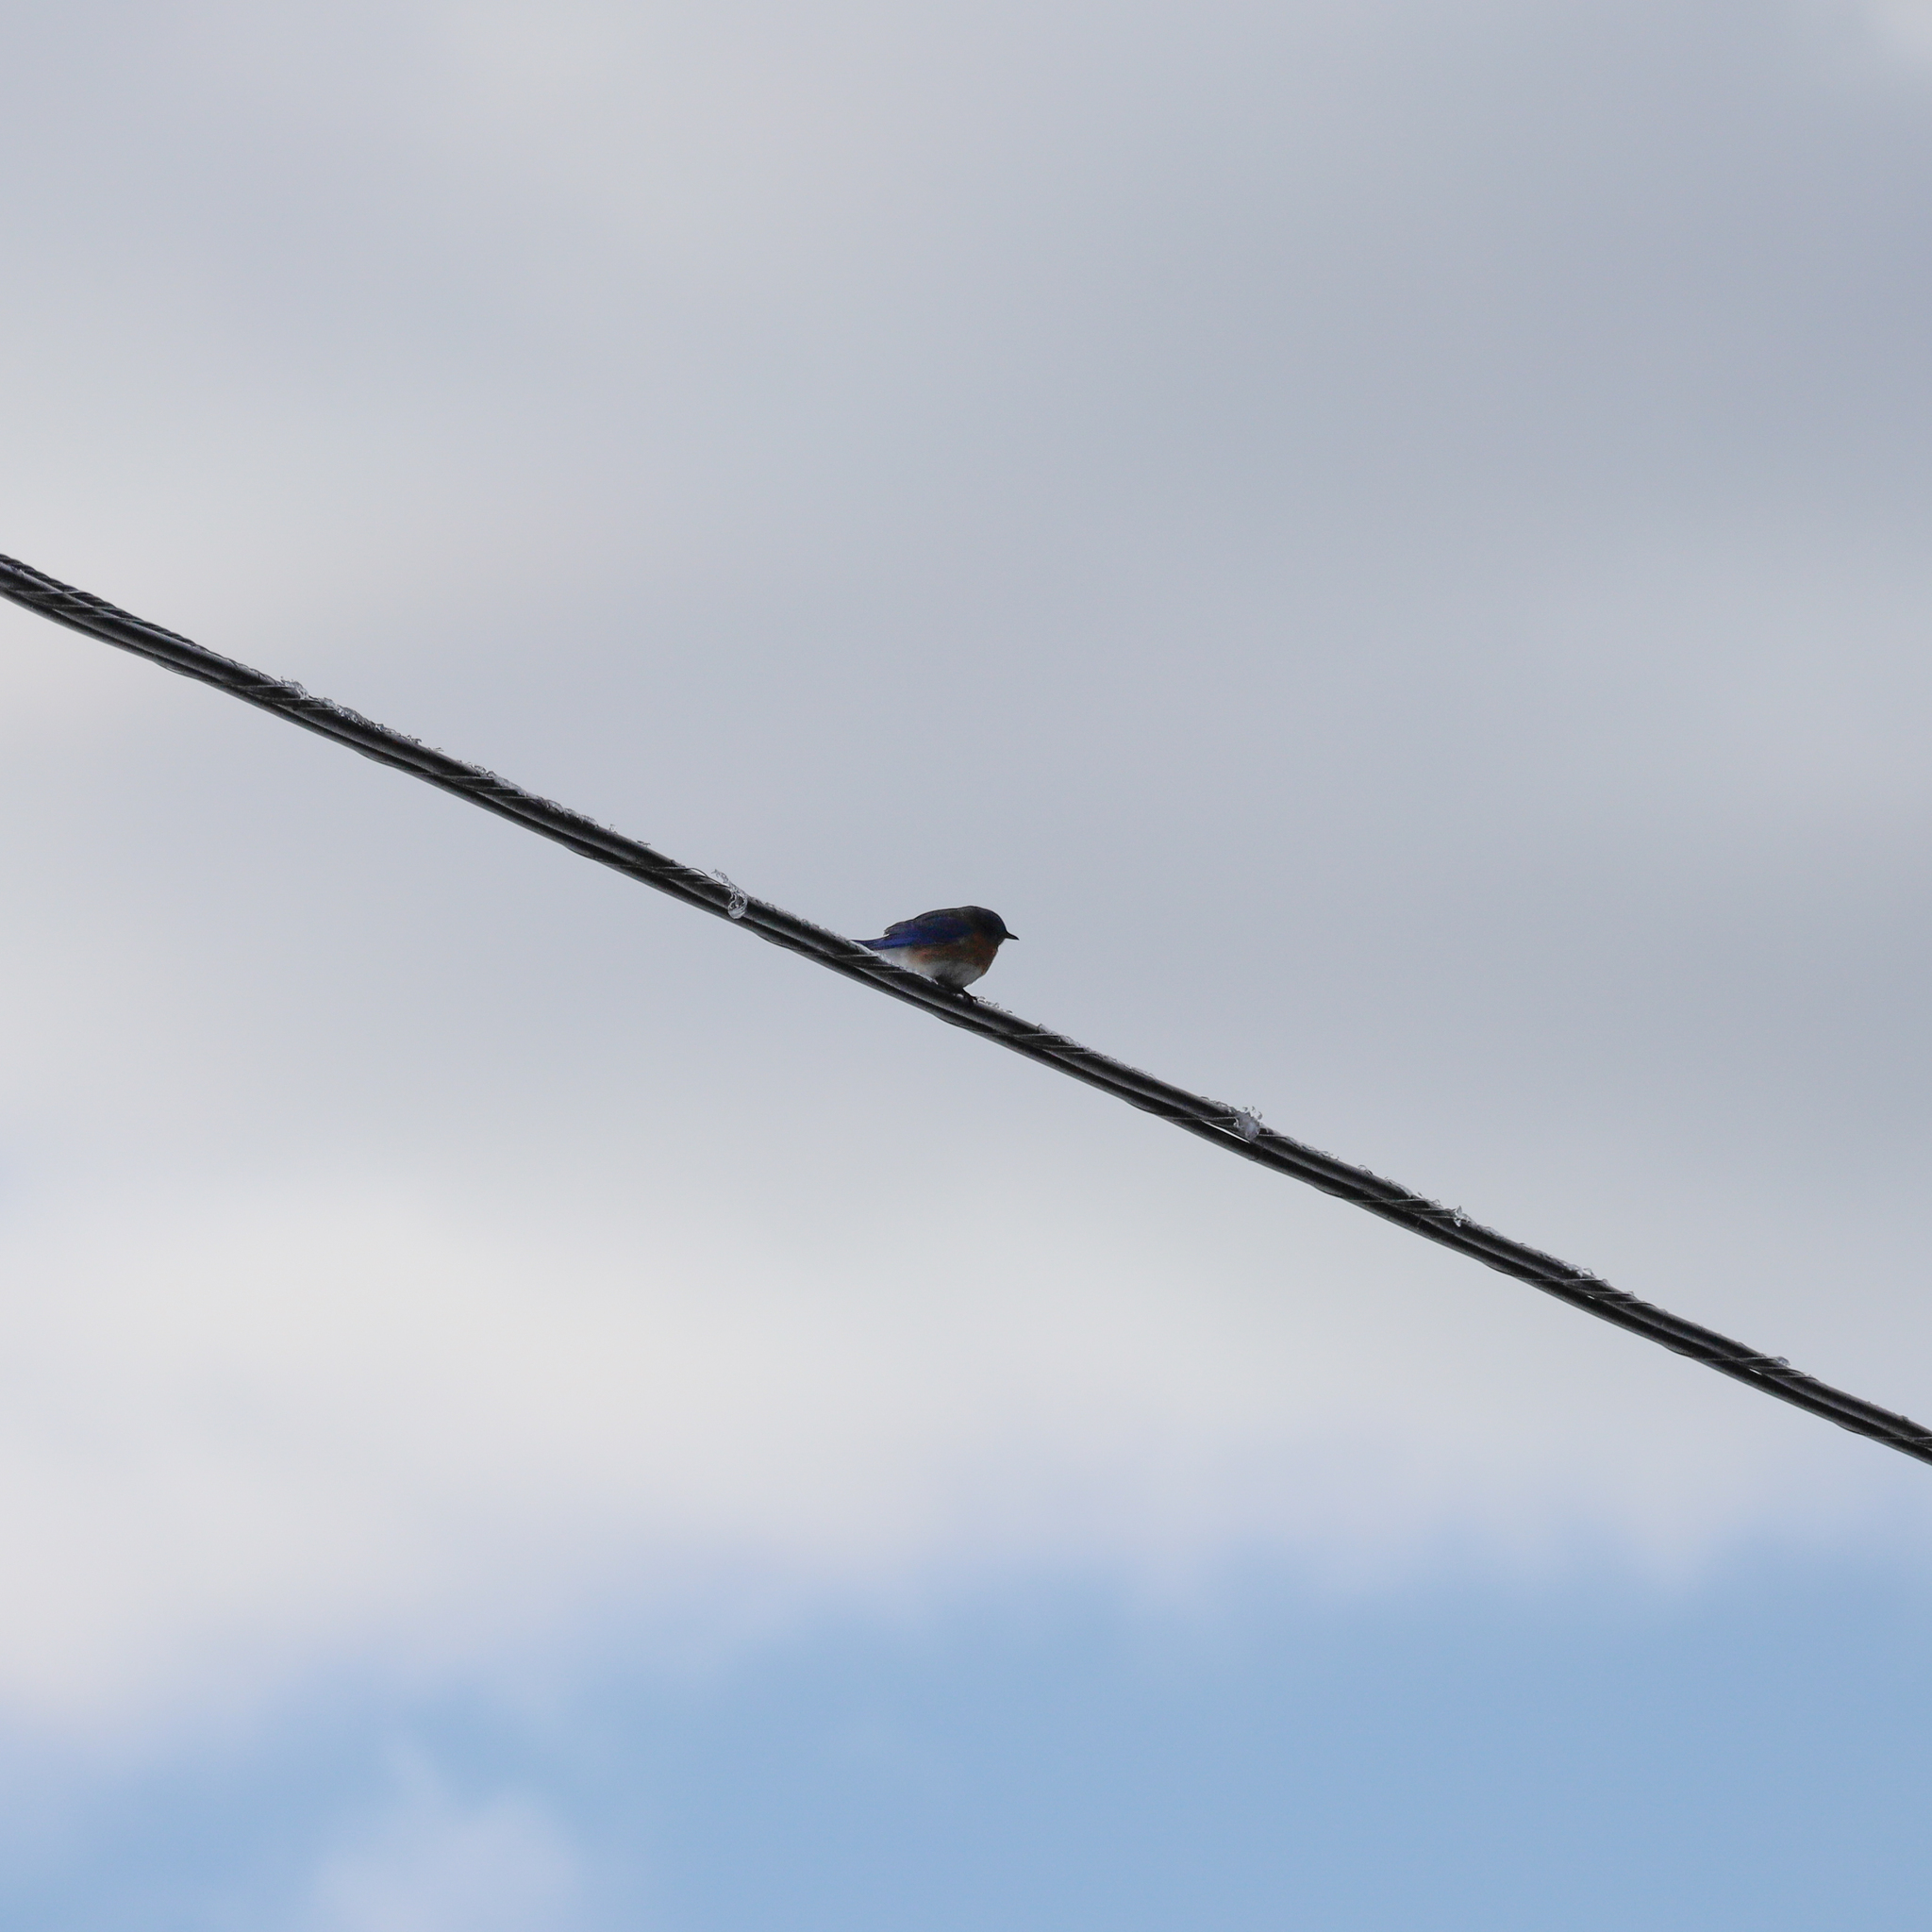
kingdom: Animalia
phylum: Chordata
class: Aves
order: Passeriformes
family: Turdidae
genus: Sialia
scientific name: Sialia sialis
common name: Eastern bluebird
